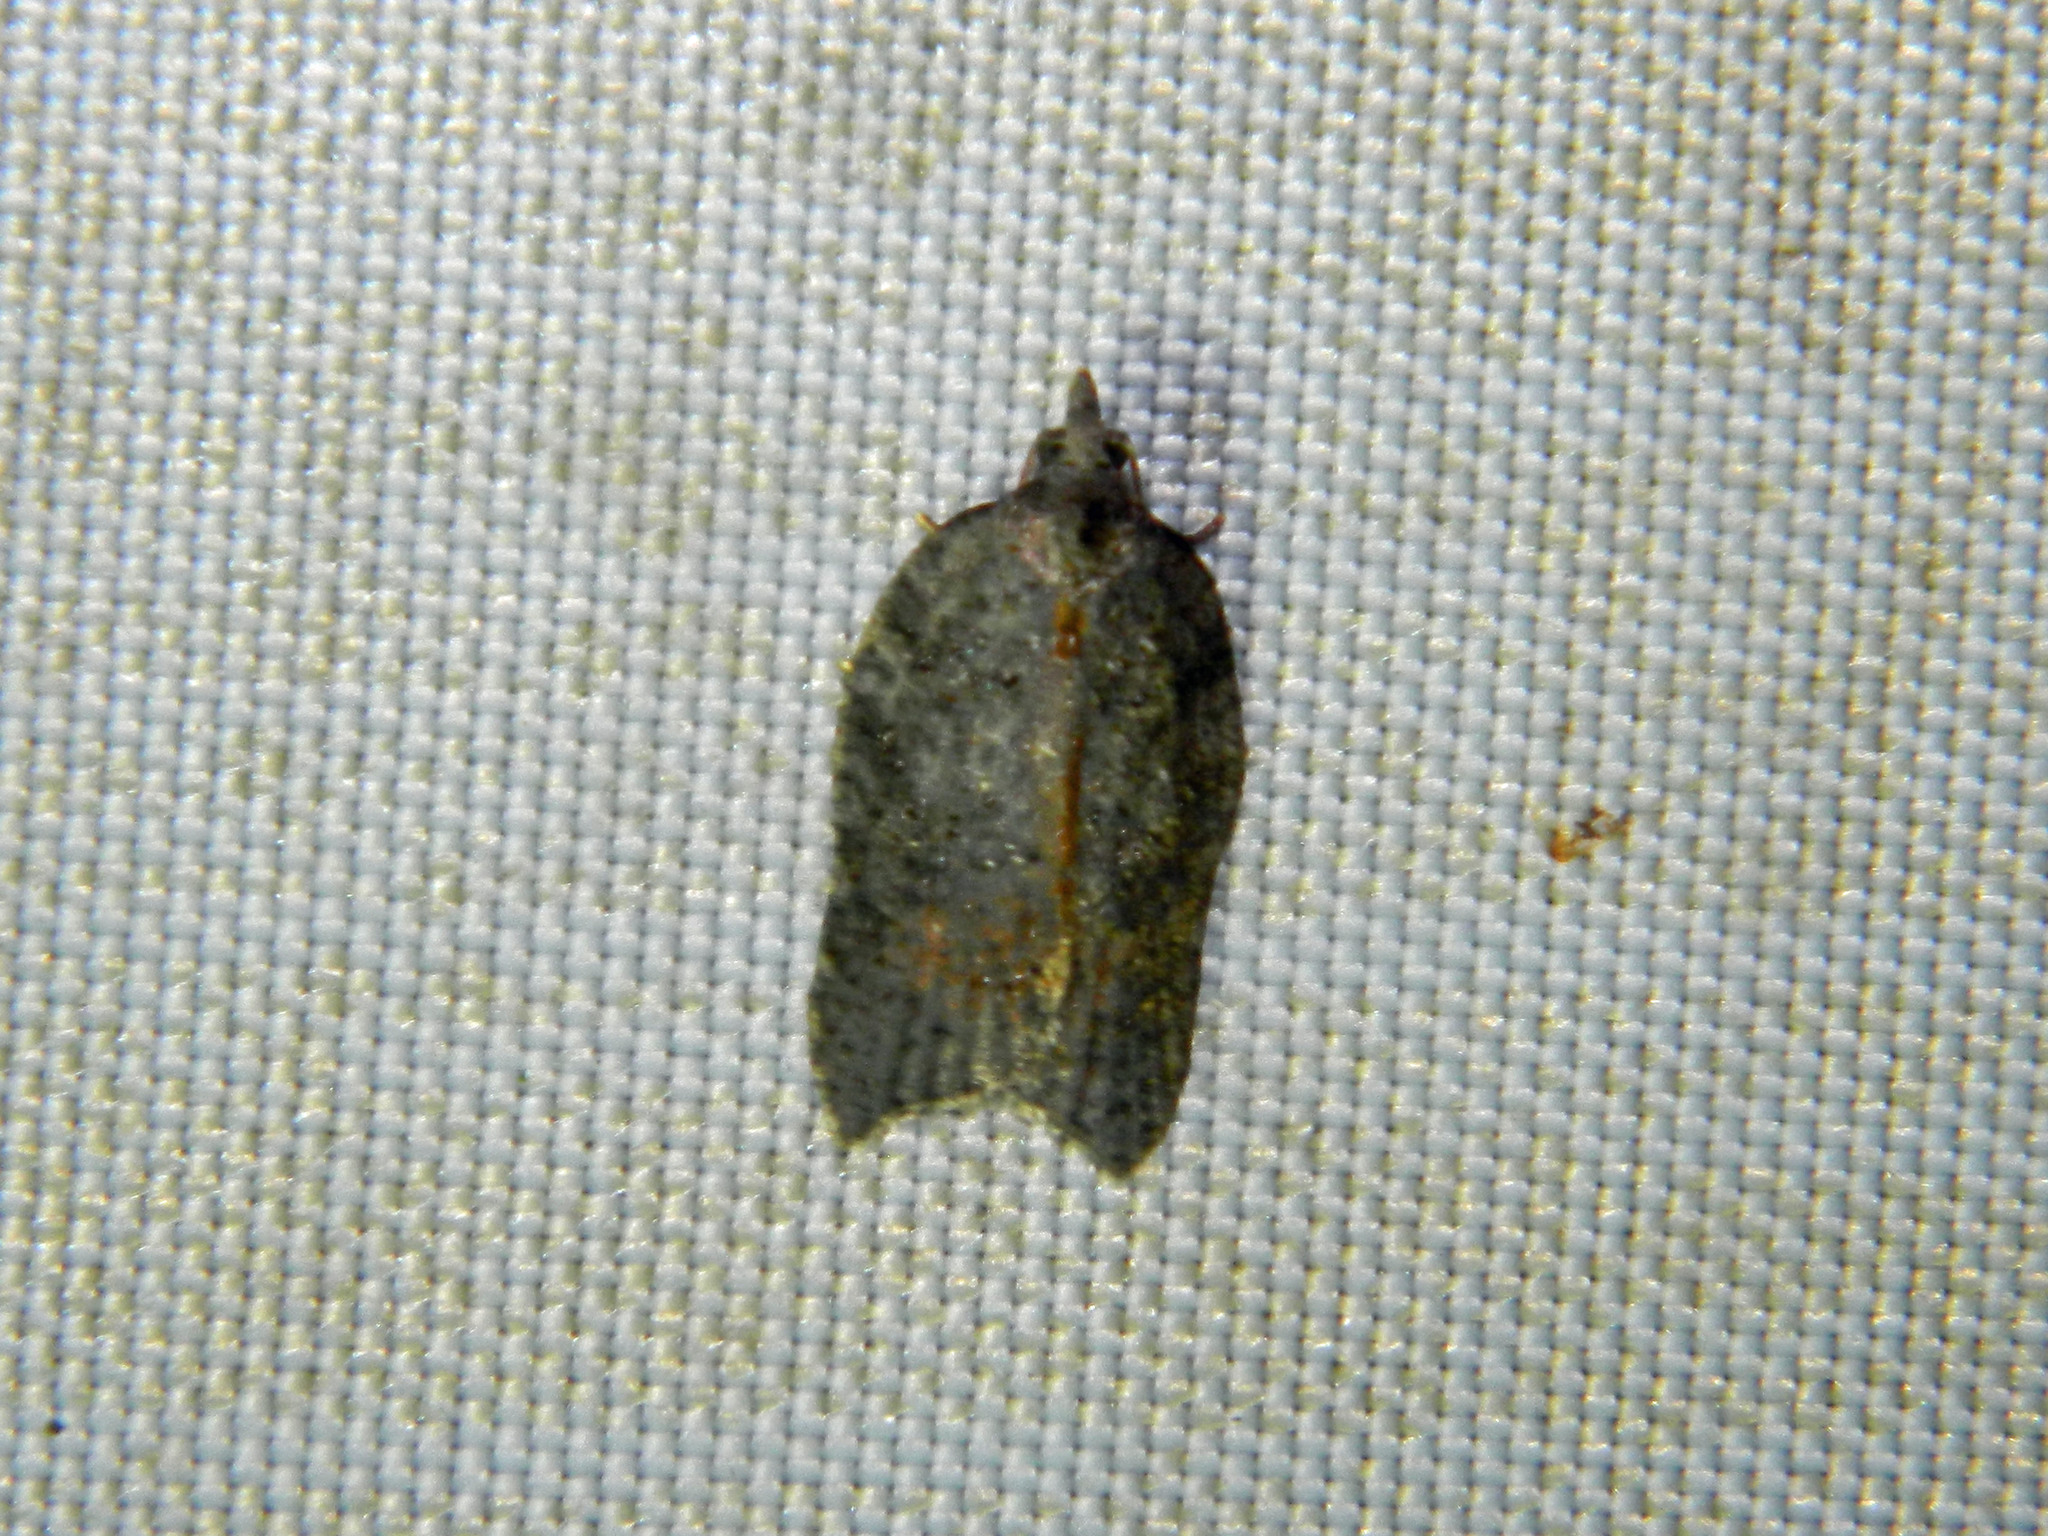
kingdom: Animalia
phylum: Arthropoda
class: Insecta
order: Lepidoptera
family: Tortricidae
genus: Acleris
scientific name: Acleris effractana
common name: Hook-winged tortrix moth
